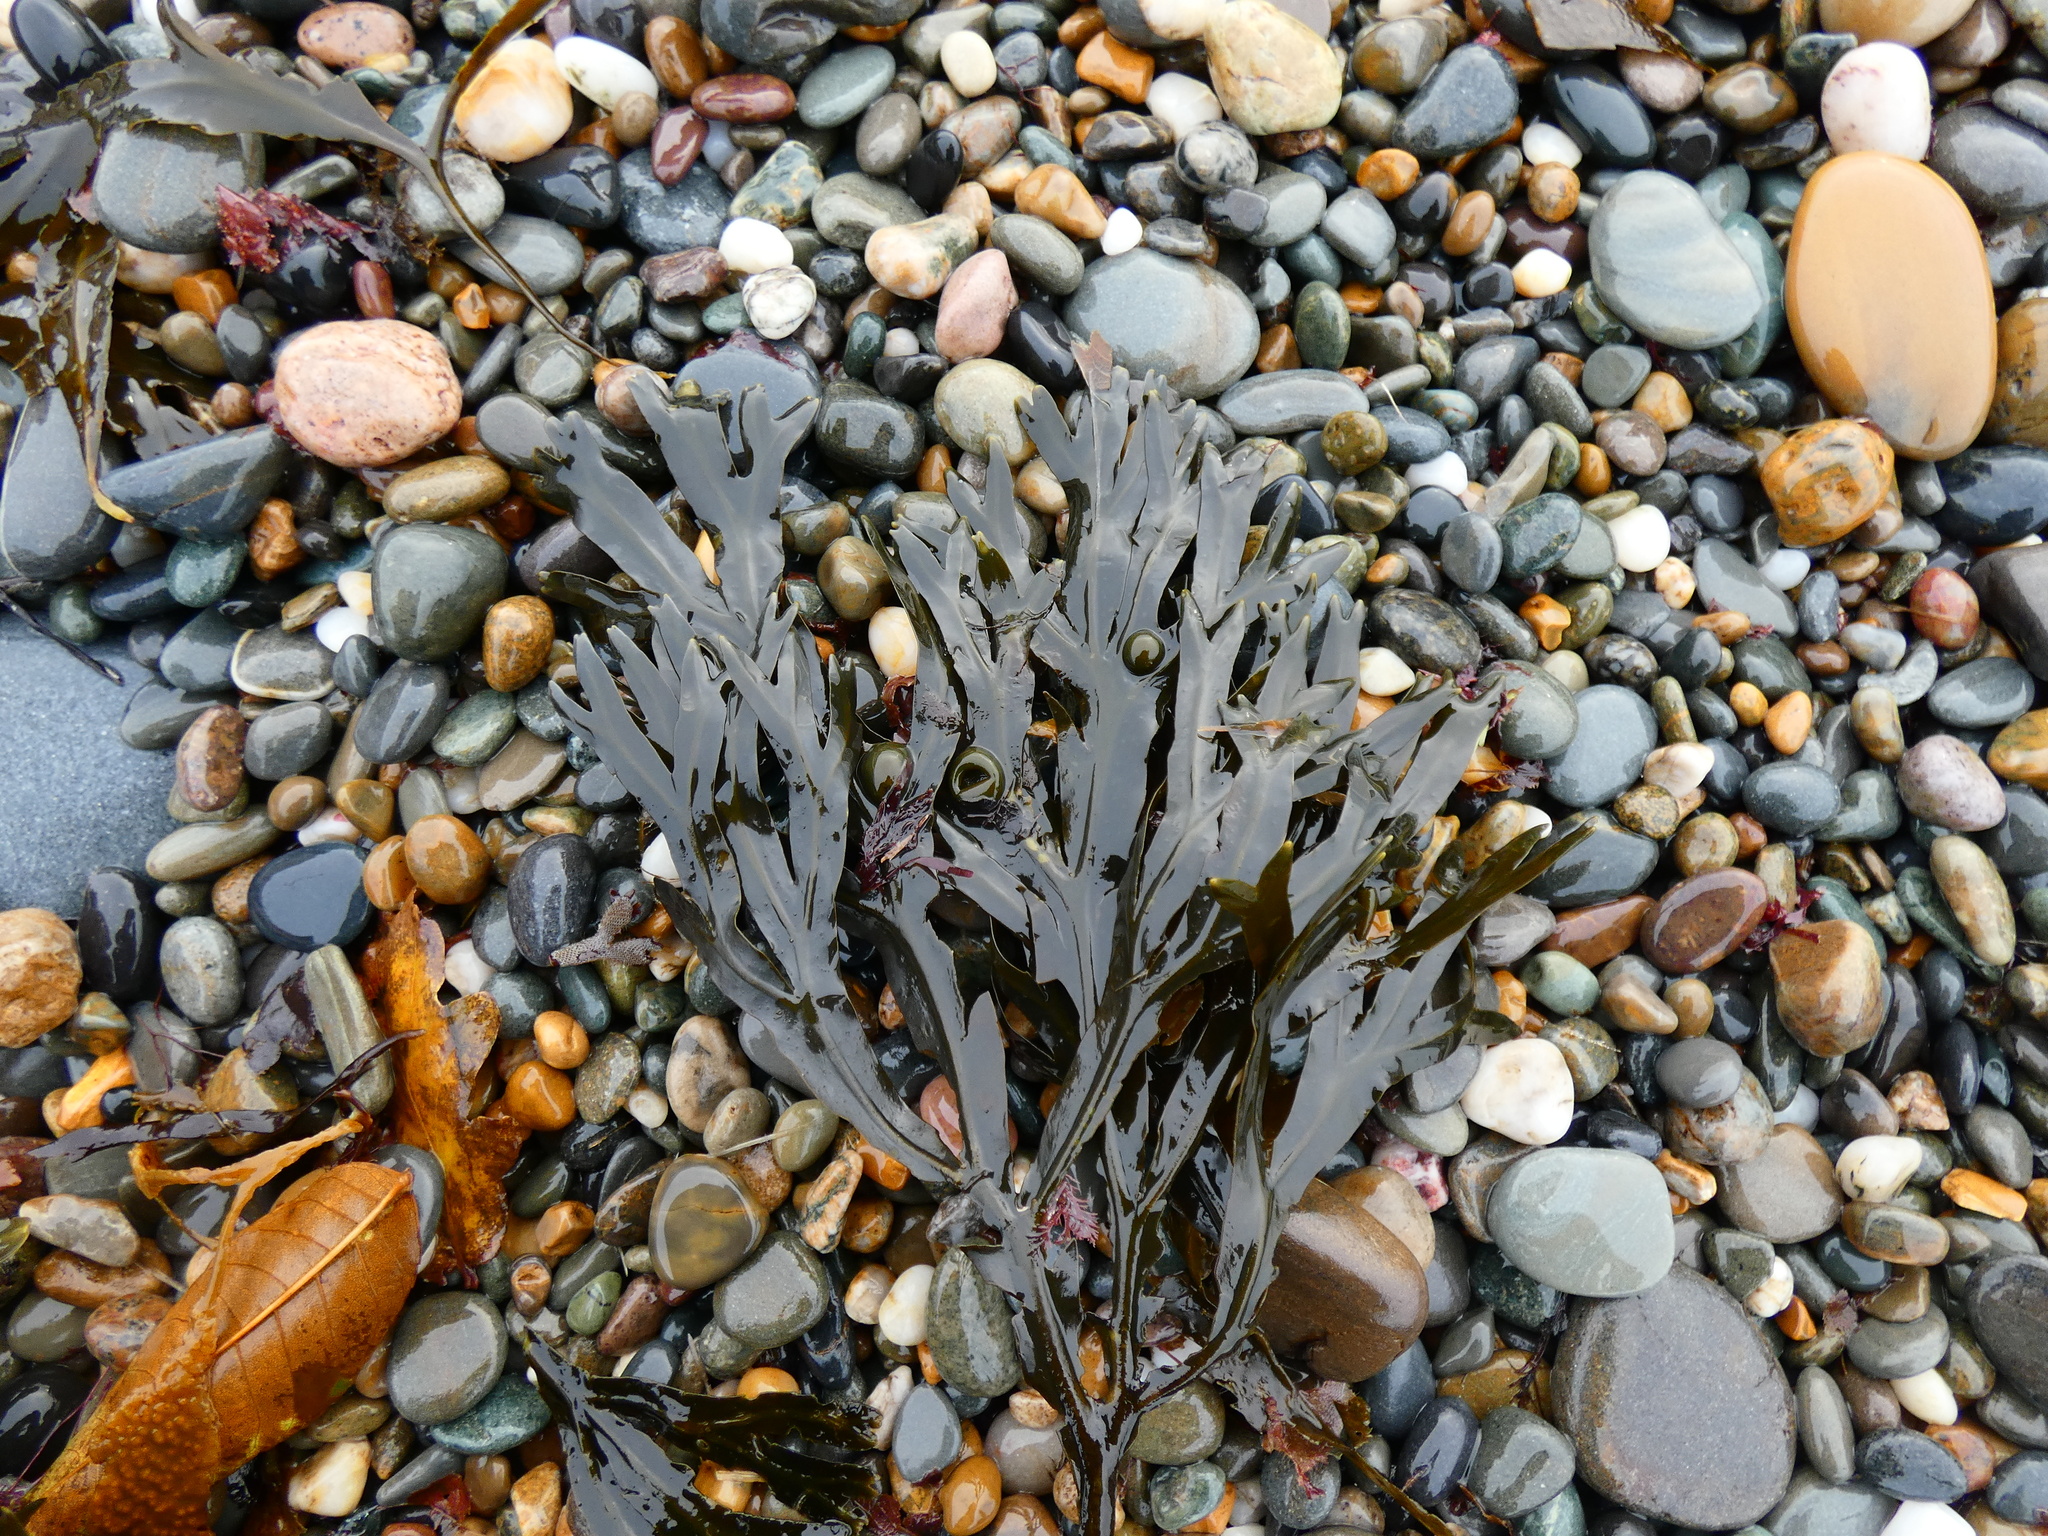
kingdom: Chromista
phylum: Ochrophyta
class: Phaeophyceae
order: Fucales
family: Fucaceae
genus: Fucus
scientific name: Fucus vesiculosus
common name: Bladder wrack
